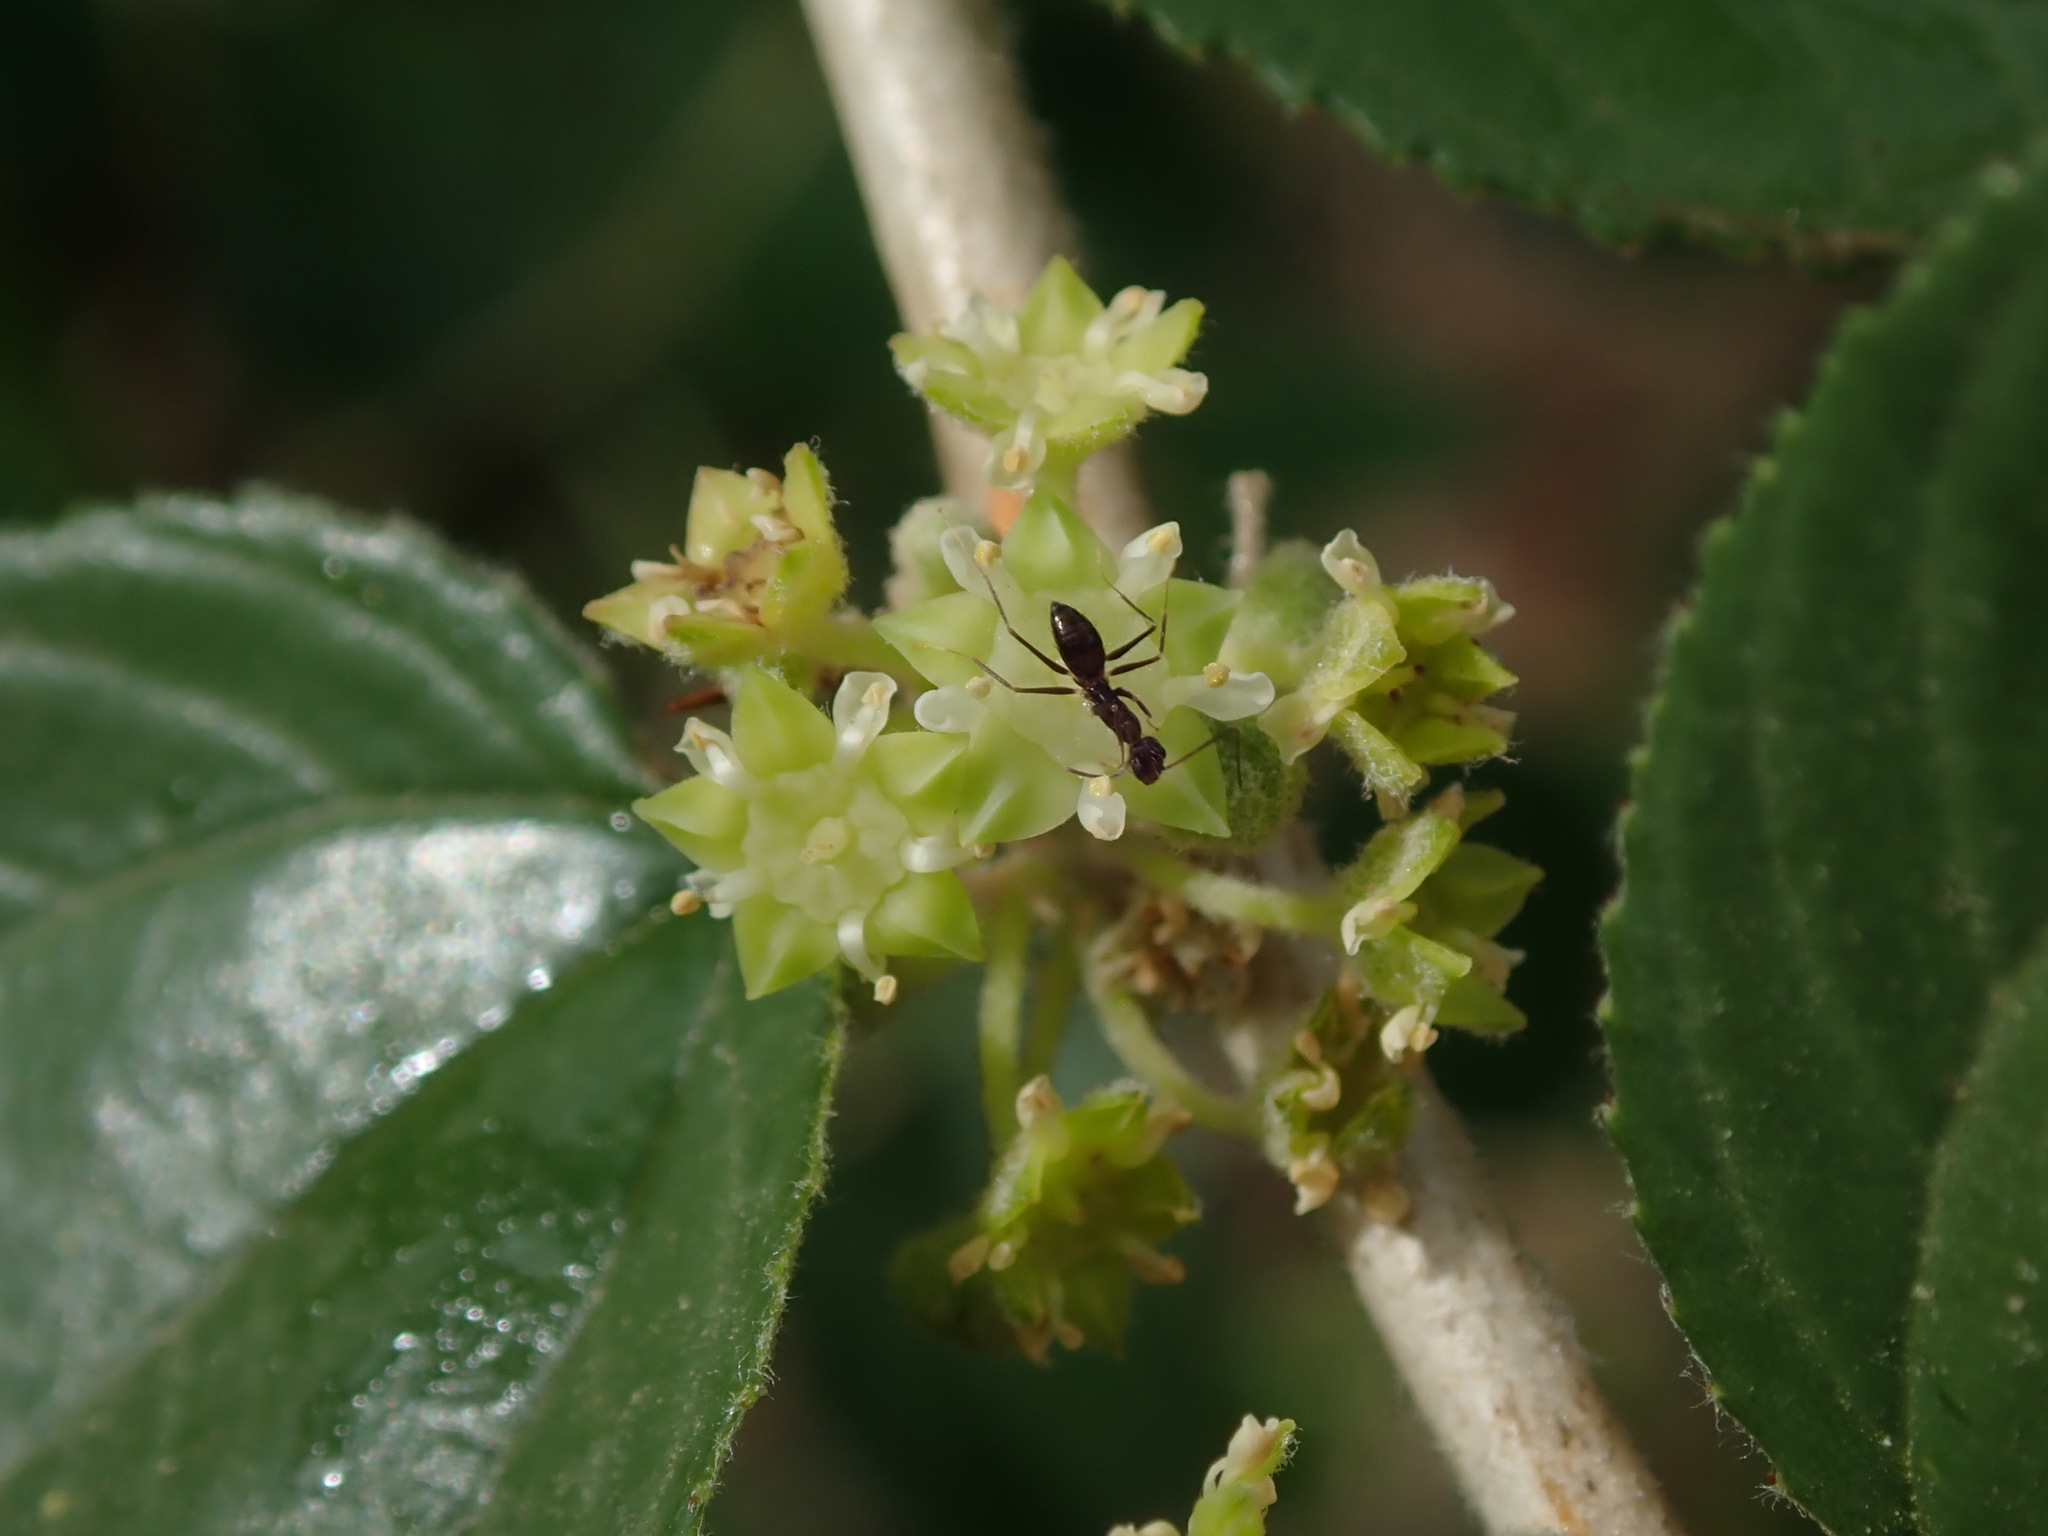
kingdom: Animalia
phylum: Arthropoda
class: Insecta
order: Hymenoptera
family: Formicidae
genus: Paratrechina
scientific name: Paratrechina longicornis
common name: Longhorned crazy ant
